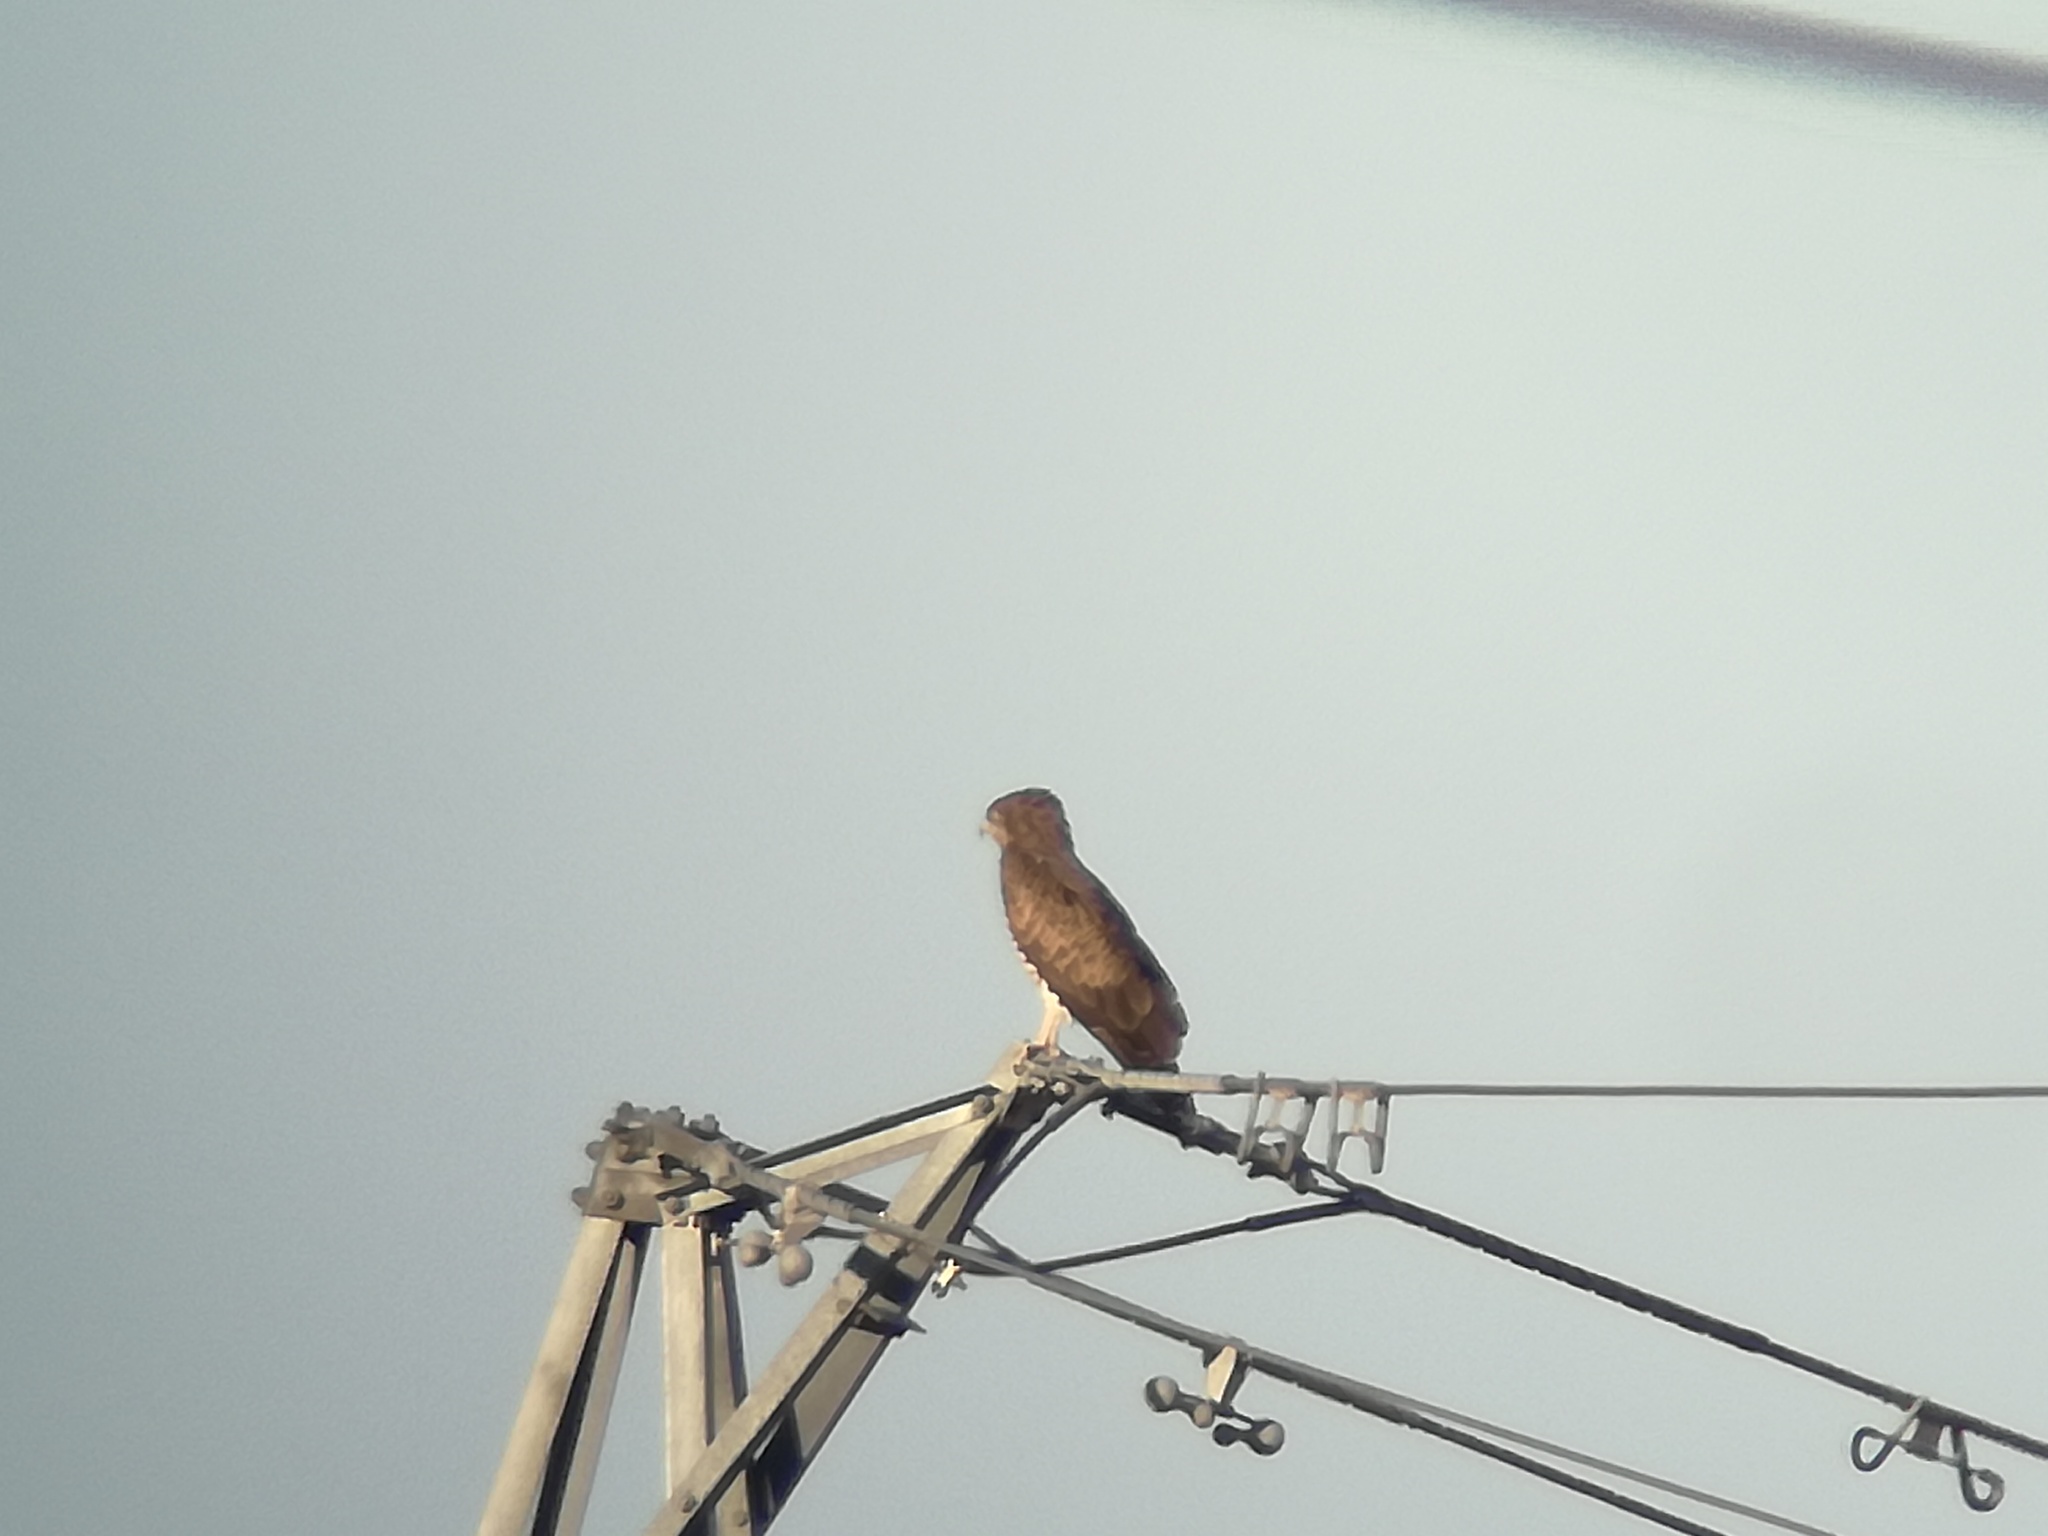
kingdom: Animalia
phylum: Chordata
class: Aves
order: Accipitriformes
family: Accipitridae
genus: Circaetus
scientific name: Circaetus gallicus
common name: Short-toed snake eagle
